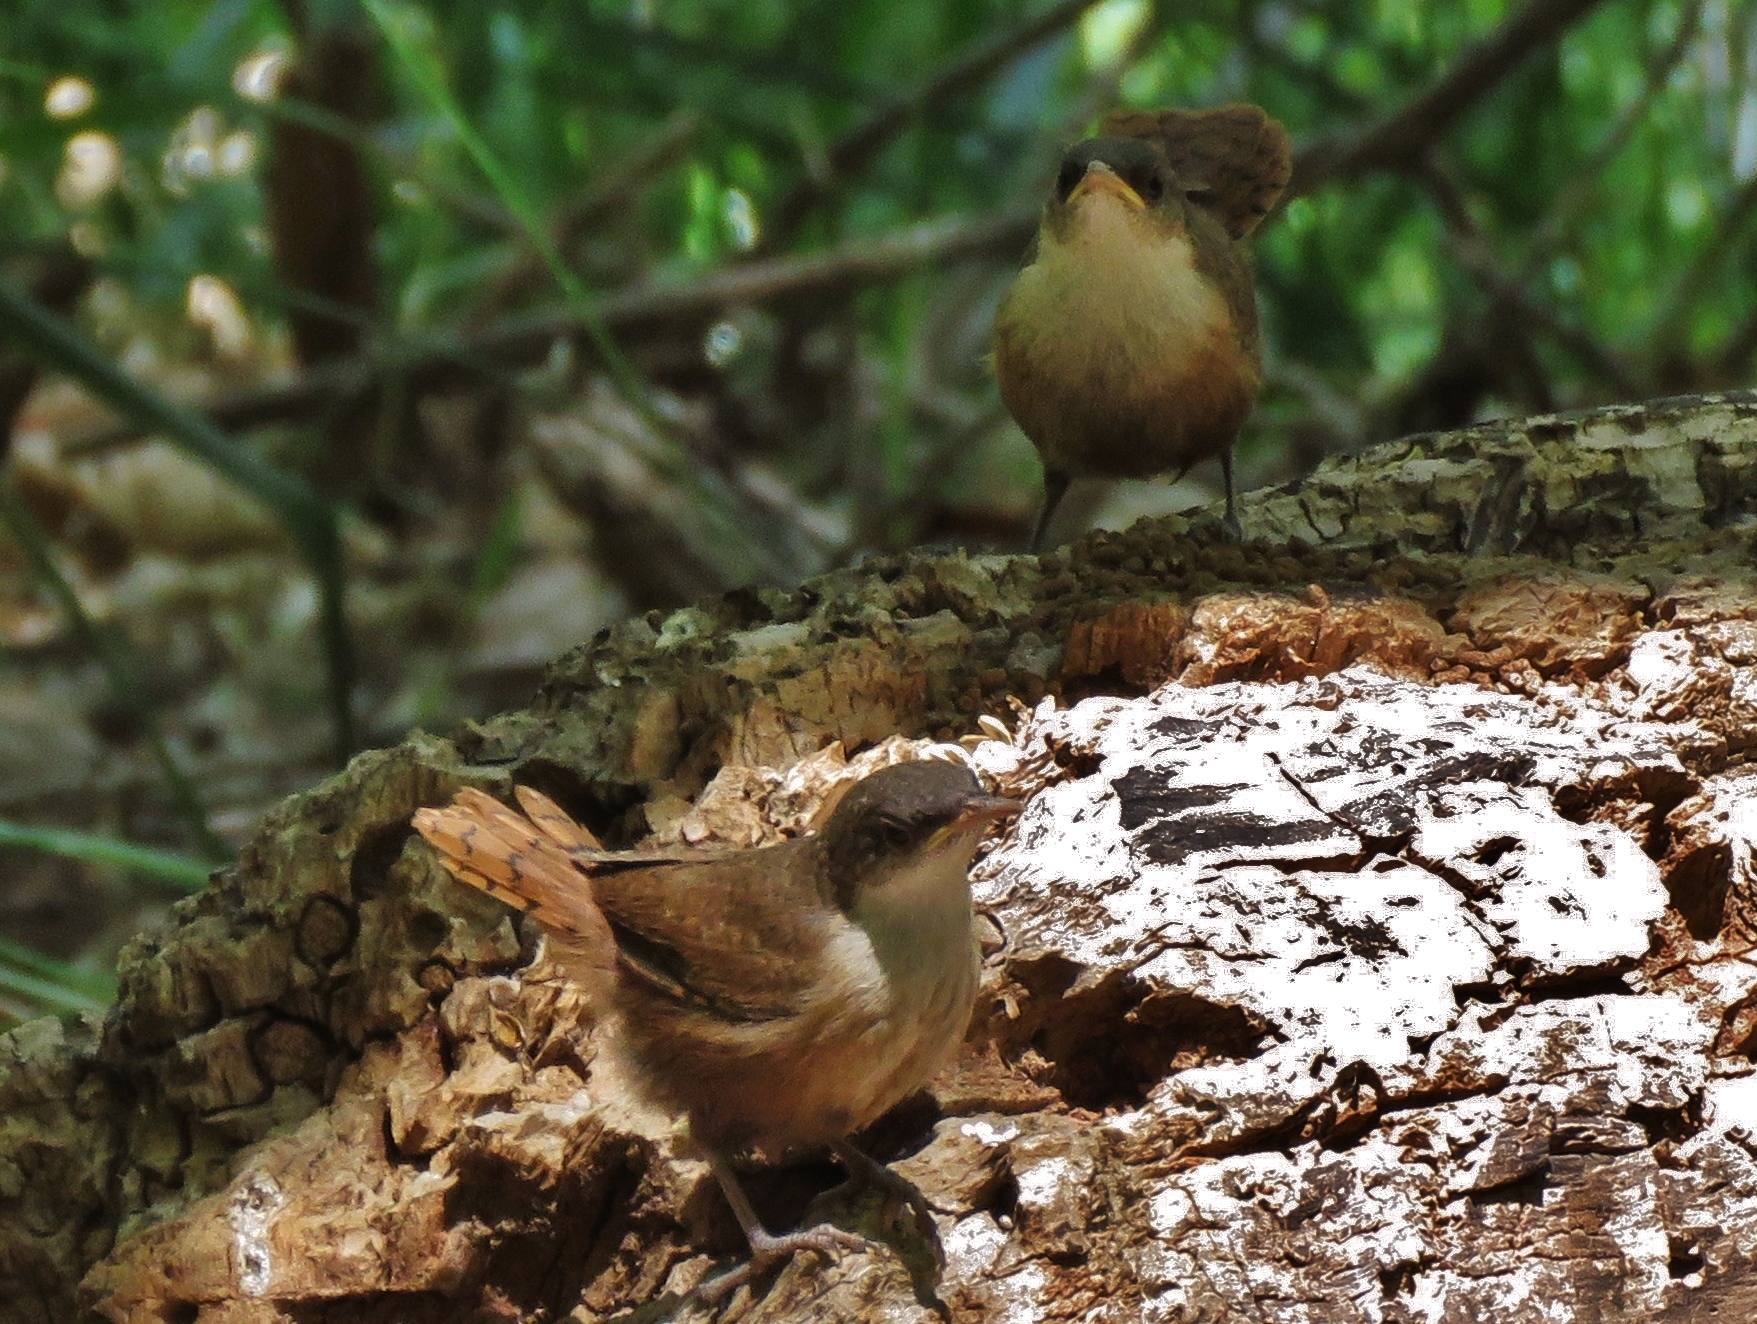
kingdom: Animalia
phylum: Chordata
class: Aves
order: Passeriformes
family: Troglodytidae
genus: Catherpes
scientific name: Catherpes mexicanus
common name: Canyon wren
